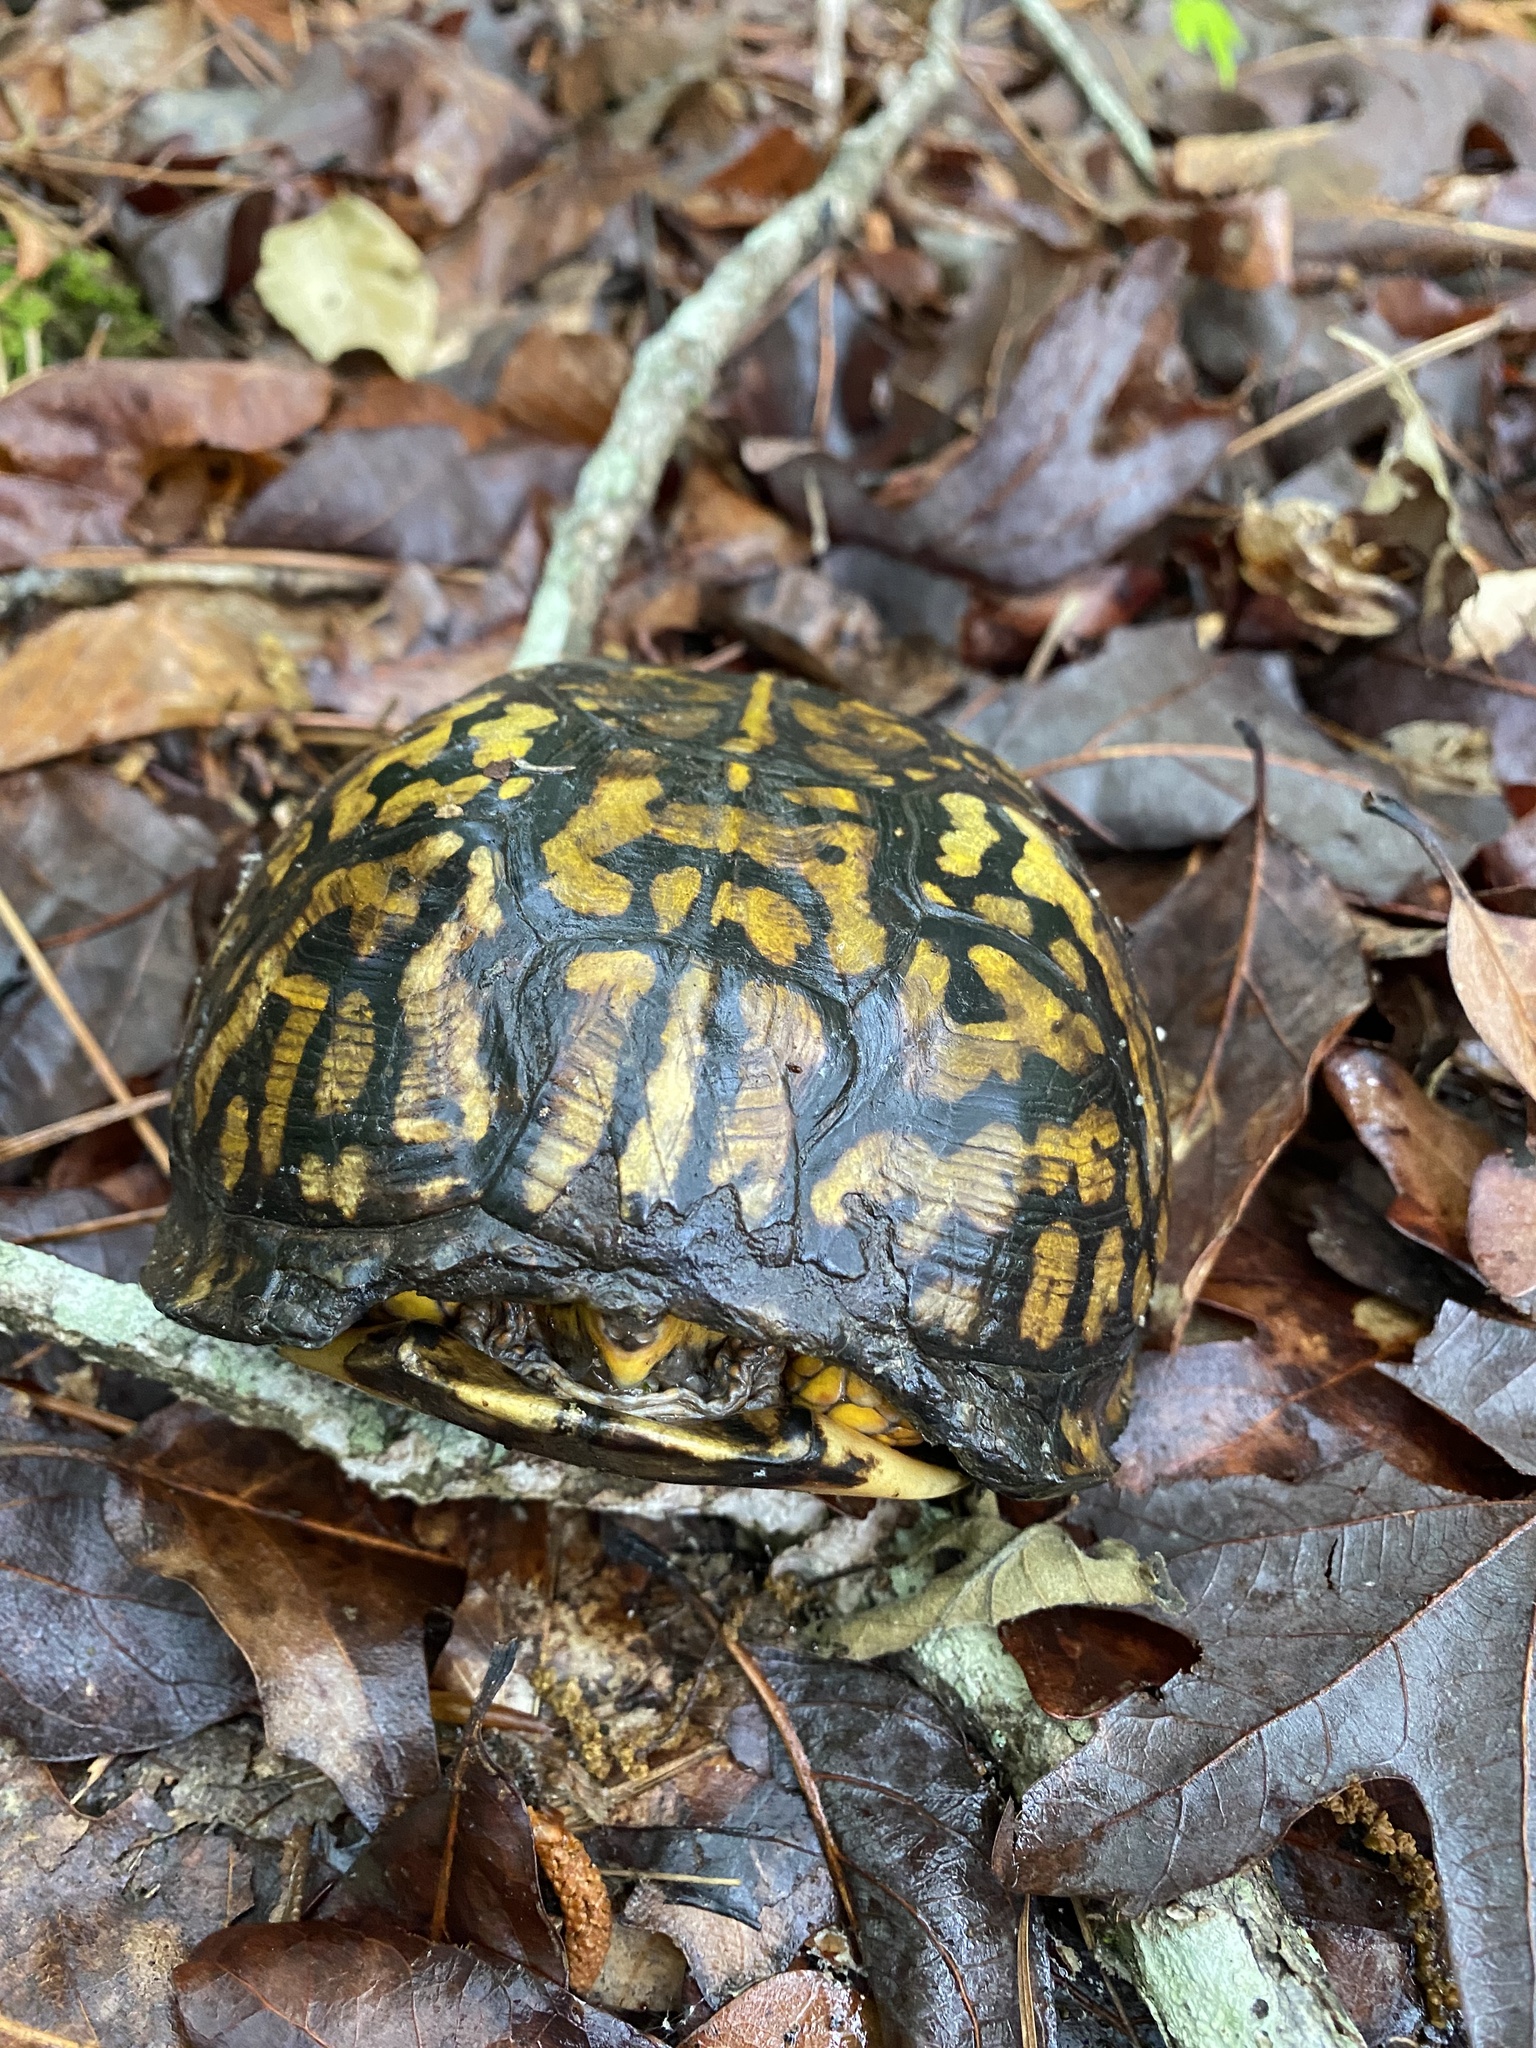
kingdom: Animalia
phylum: Chordata
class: Testudines
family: Emydidae
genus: Terrapene
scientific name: Terrapene carolina
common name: Common box turtle
